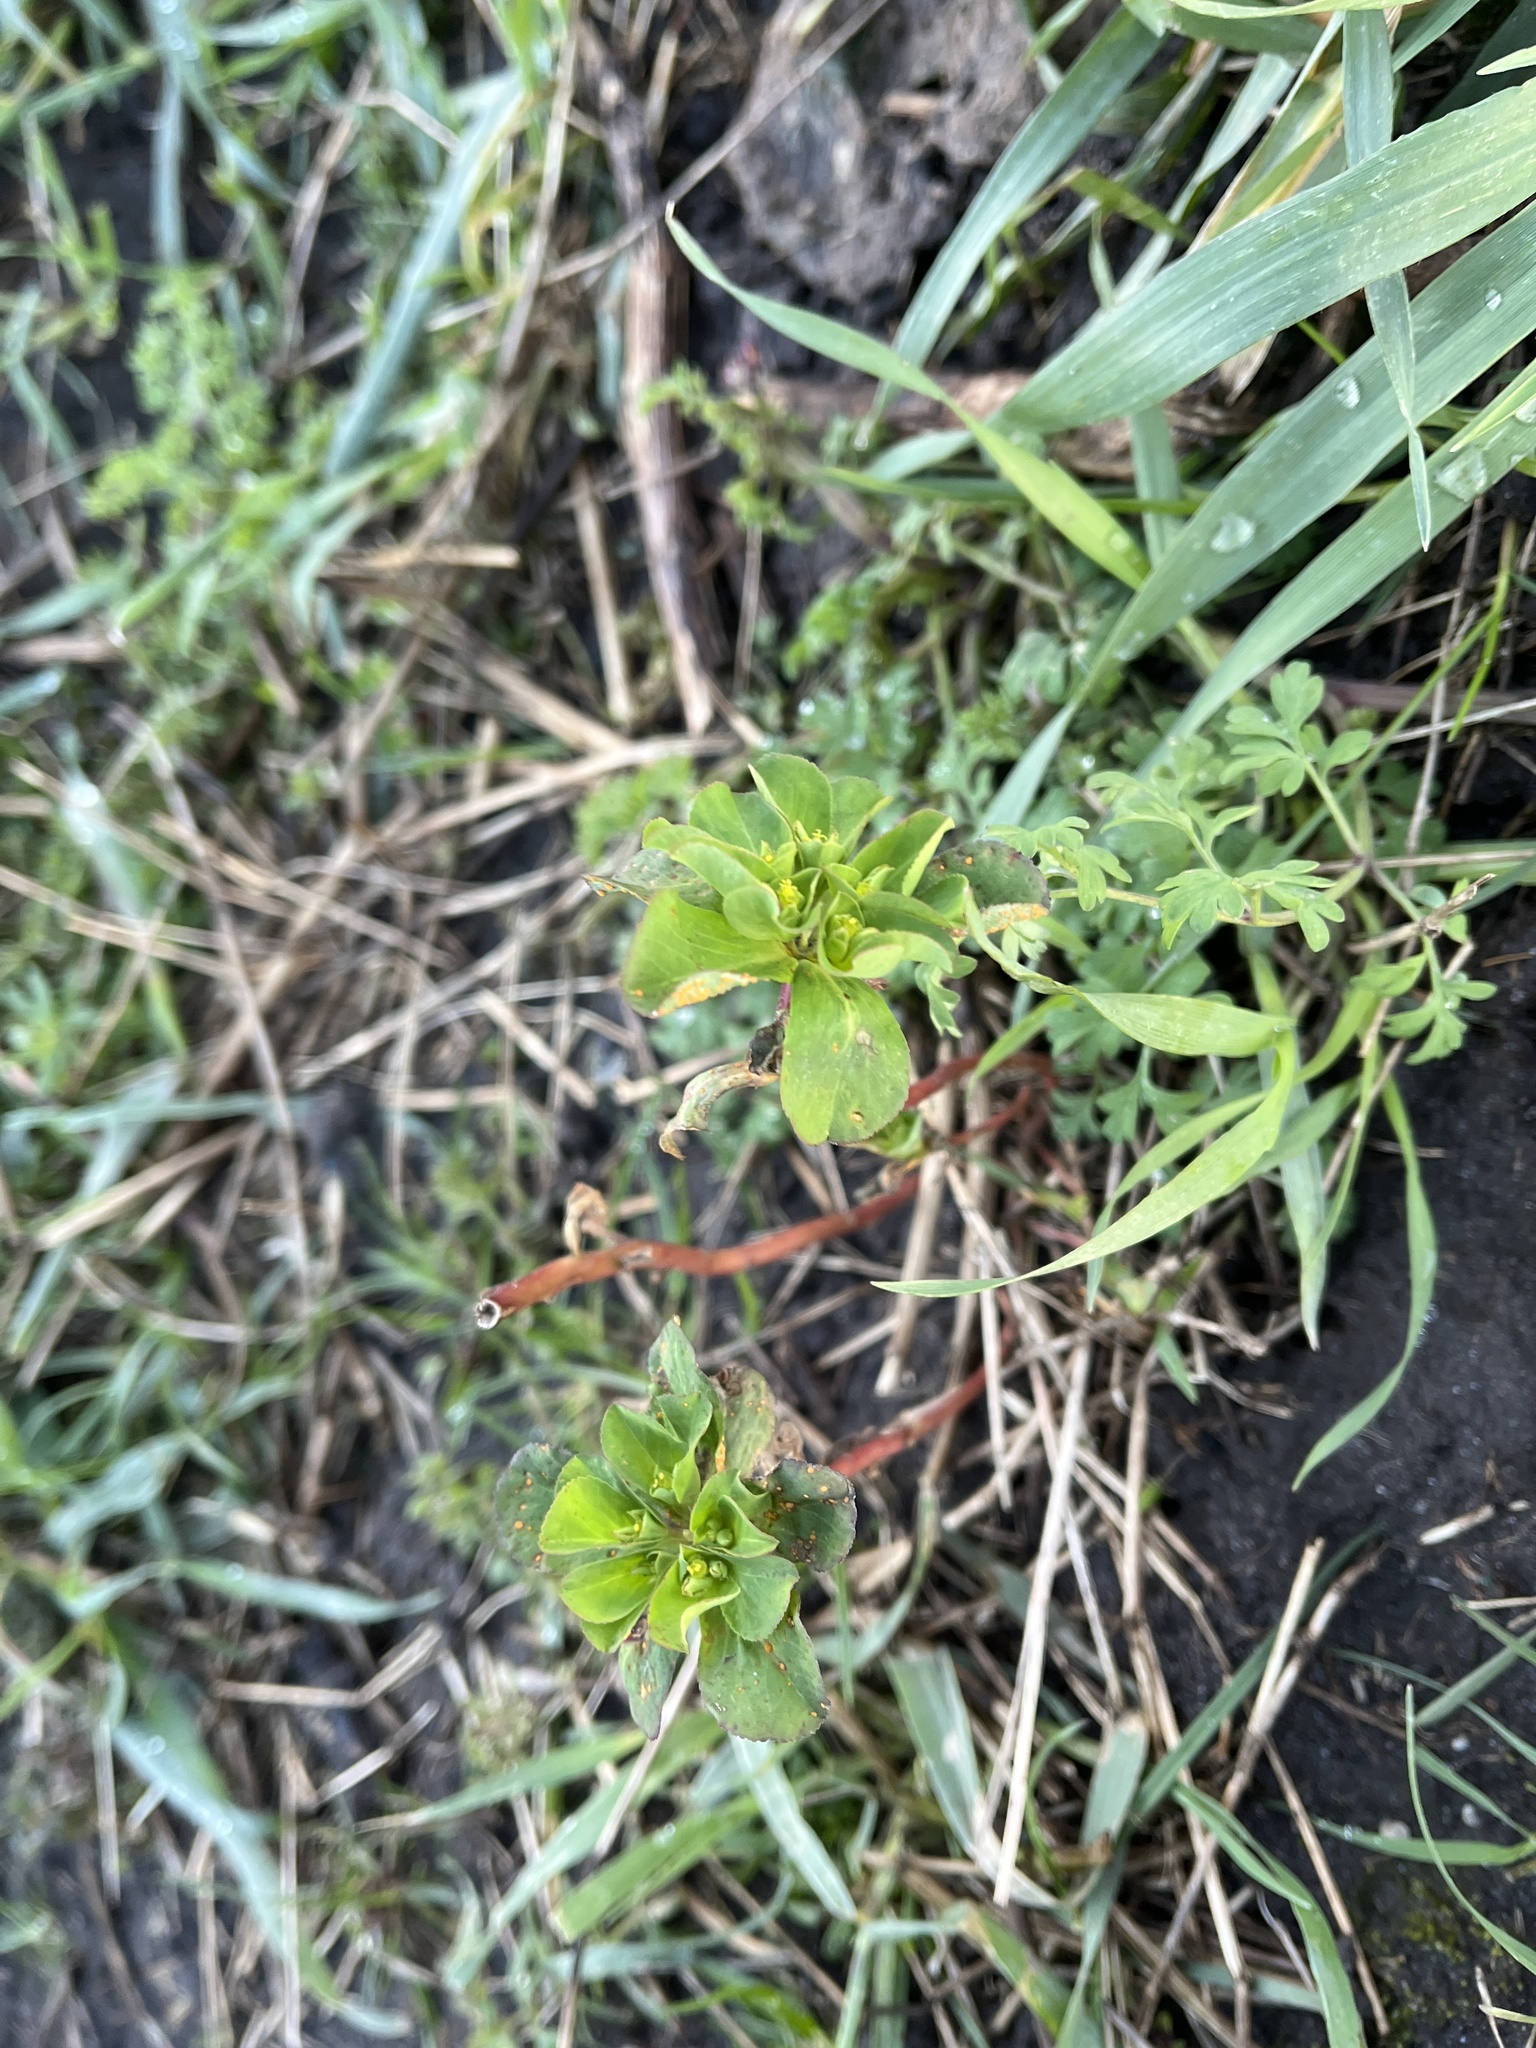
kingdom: Plantae
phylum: Tracheophyta
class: Magnoliopsida
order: Malpighiales
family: Euphorbiaceae
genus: Euphorbia
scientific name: Euphorbia helioscopia
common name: Sun spurge
